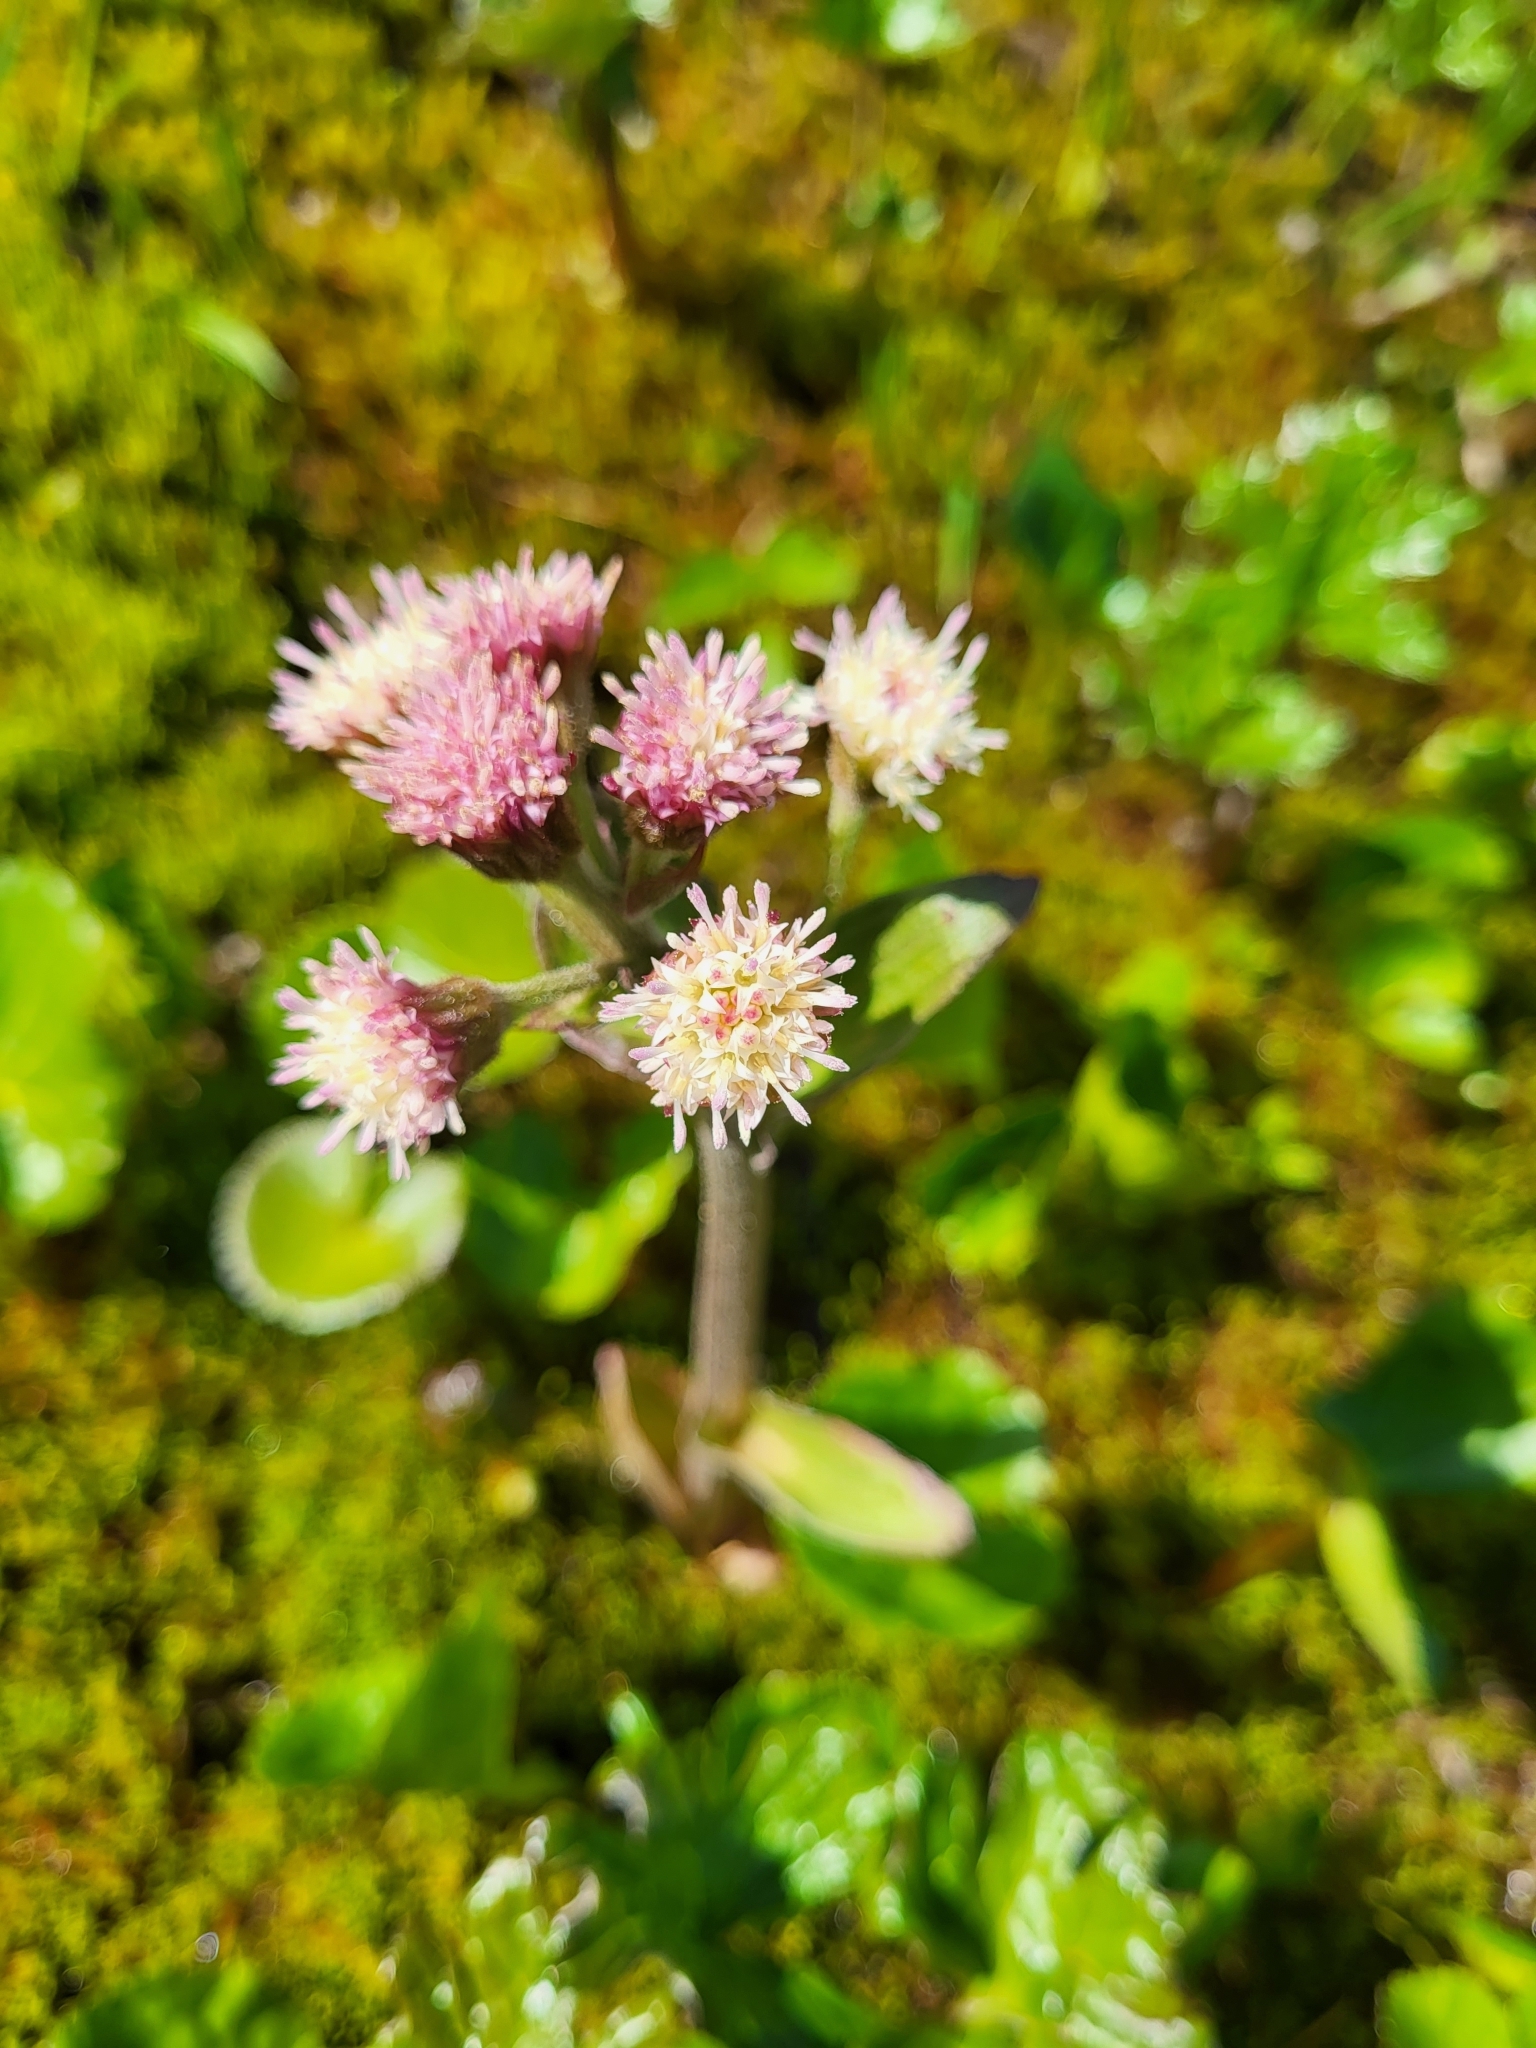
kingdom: Plantae
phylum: Tracheophyta
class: Magnoliopsida
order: Asterales
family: Asteraceae
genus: Petasites
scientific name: Petasites frigidus
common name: Arctic butterbur
